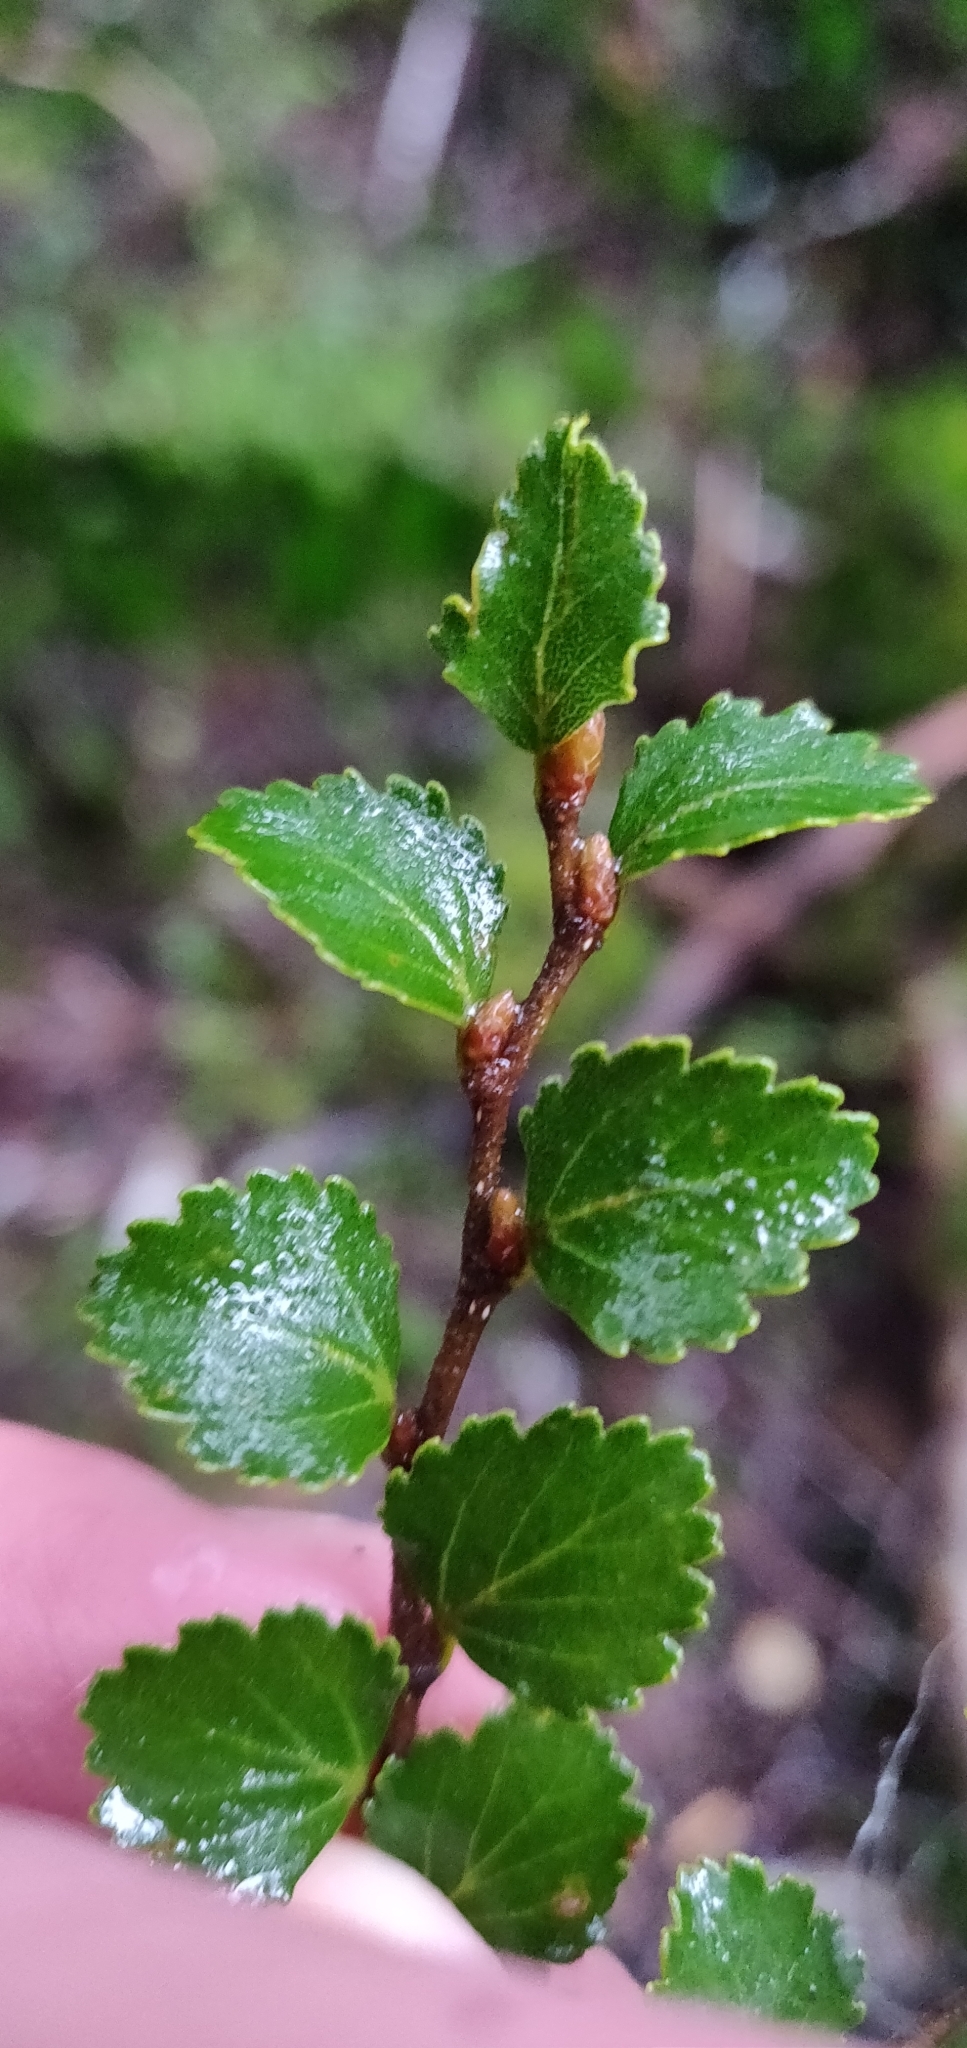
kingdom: Plantae
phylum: Tracheophyta
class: Magnoliopsida
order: Fagales
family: Nothofagaceae
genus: Nothofagus
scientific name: Nothofagus menziesii
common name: Silver beech
